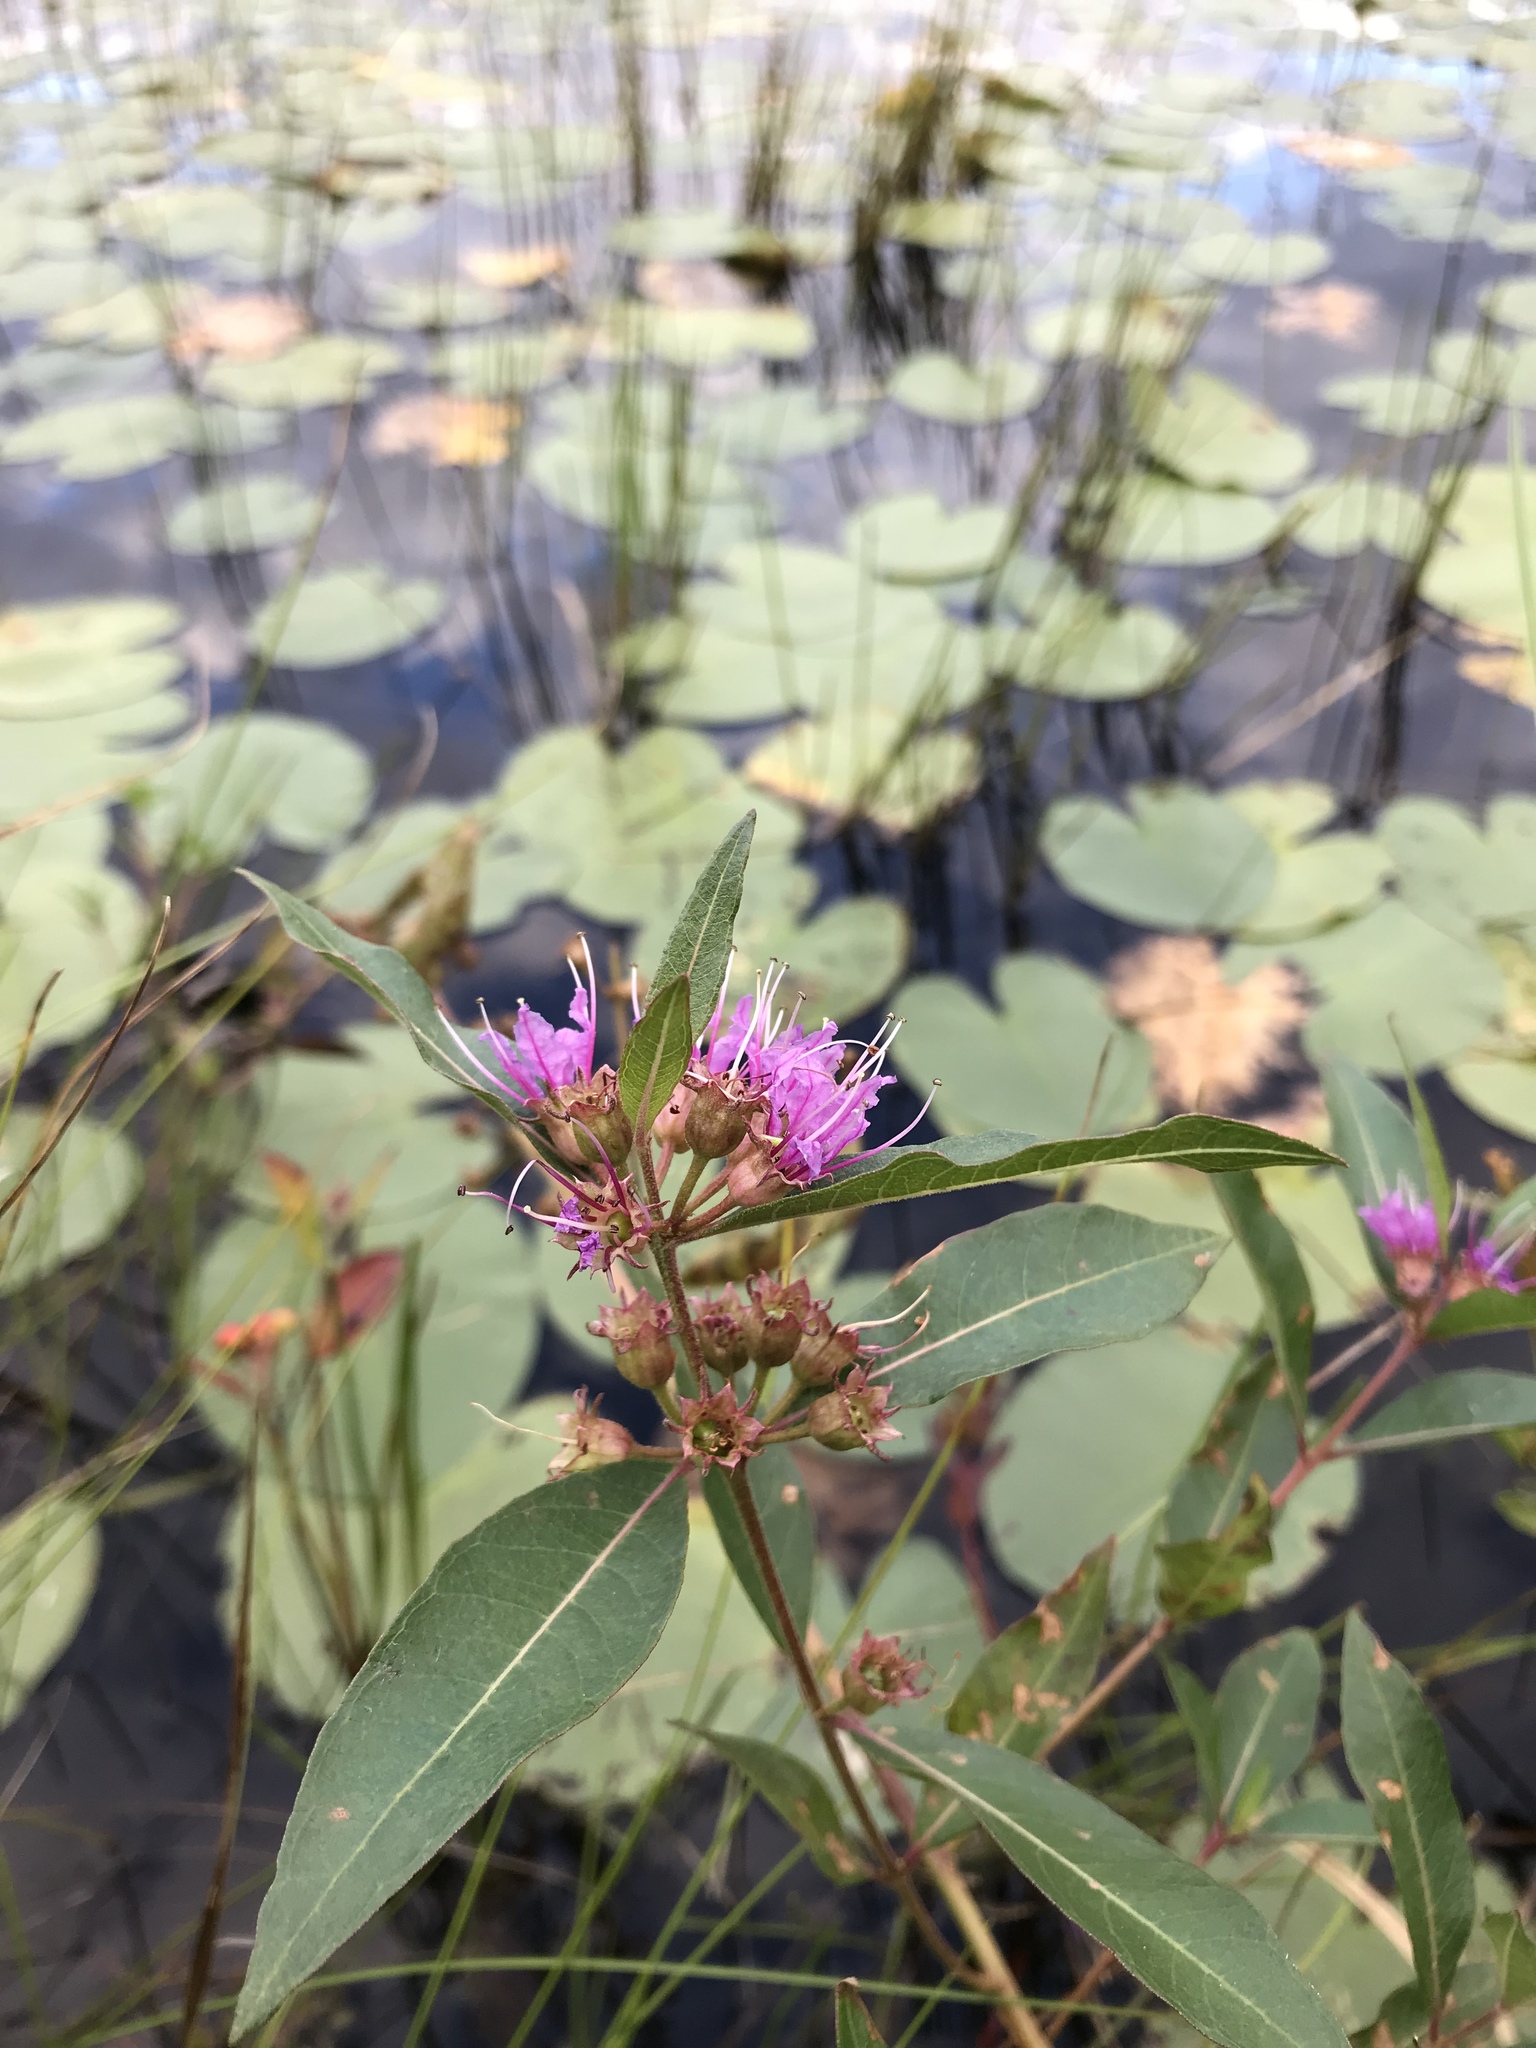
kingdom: Plantae
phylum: Tracheophyta
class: Magnoliopsida
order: Myrtales
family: Lythraceae
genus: Decodon
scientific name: Decodon verticillatus
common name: Hairy swamp loosestrife
